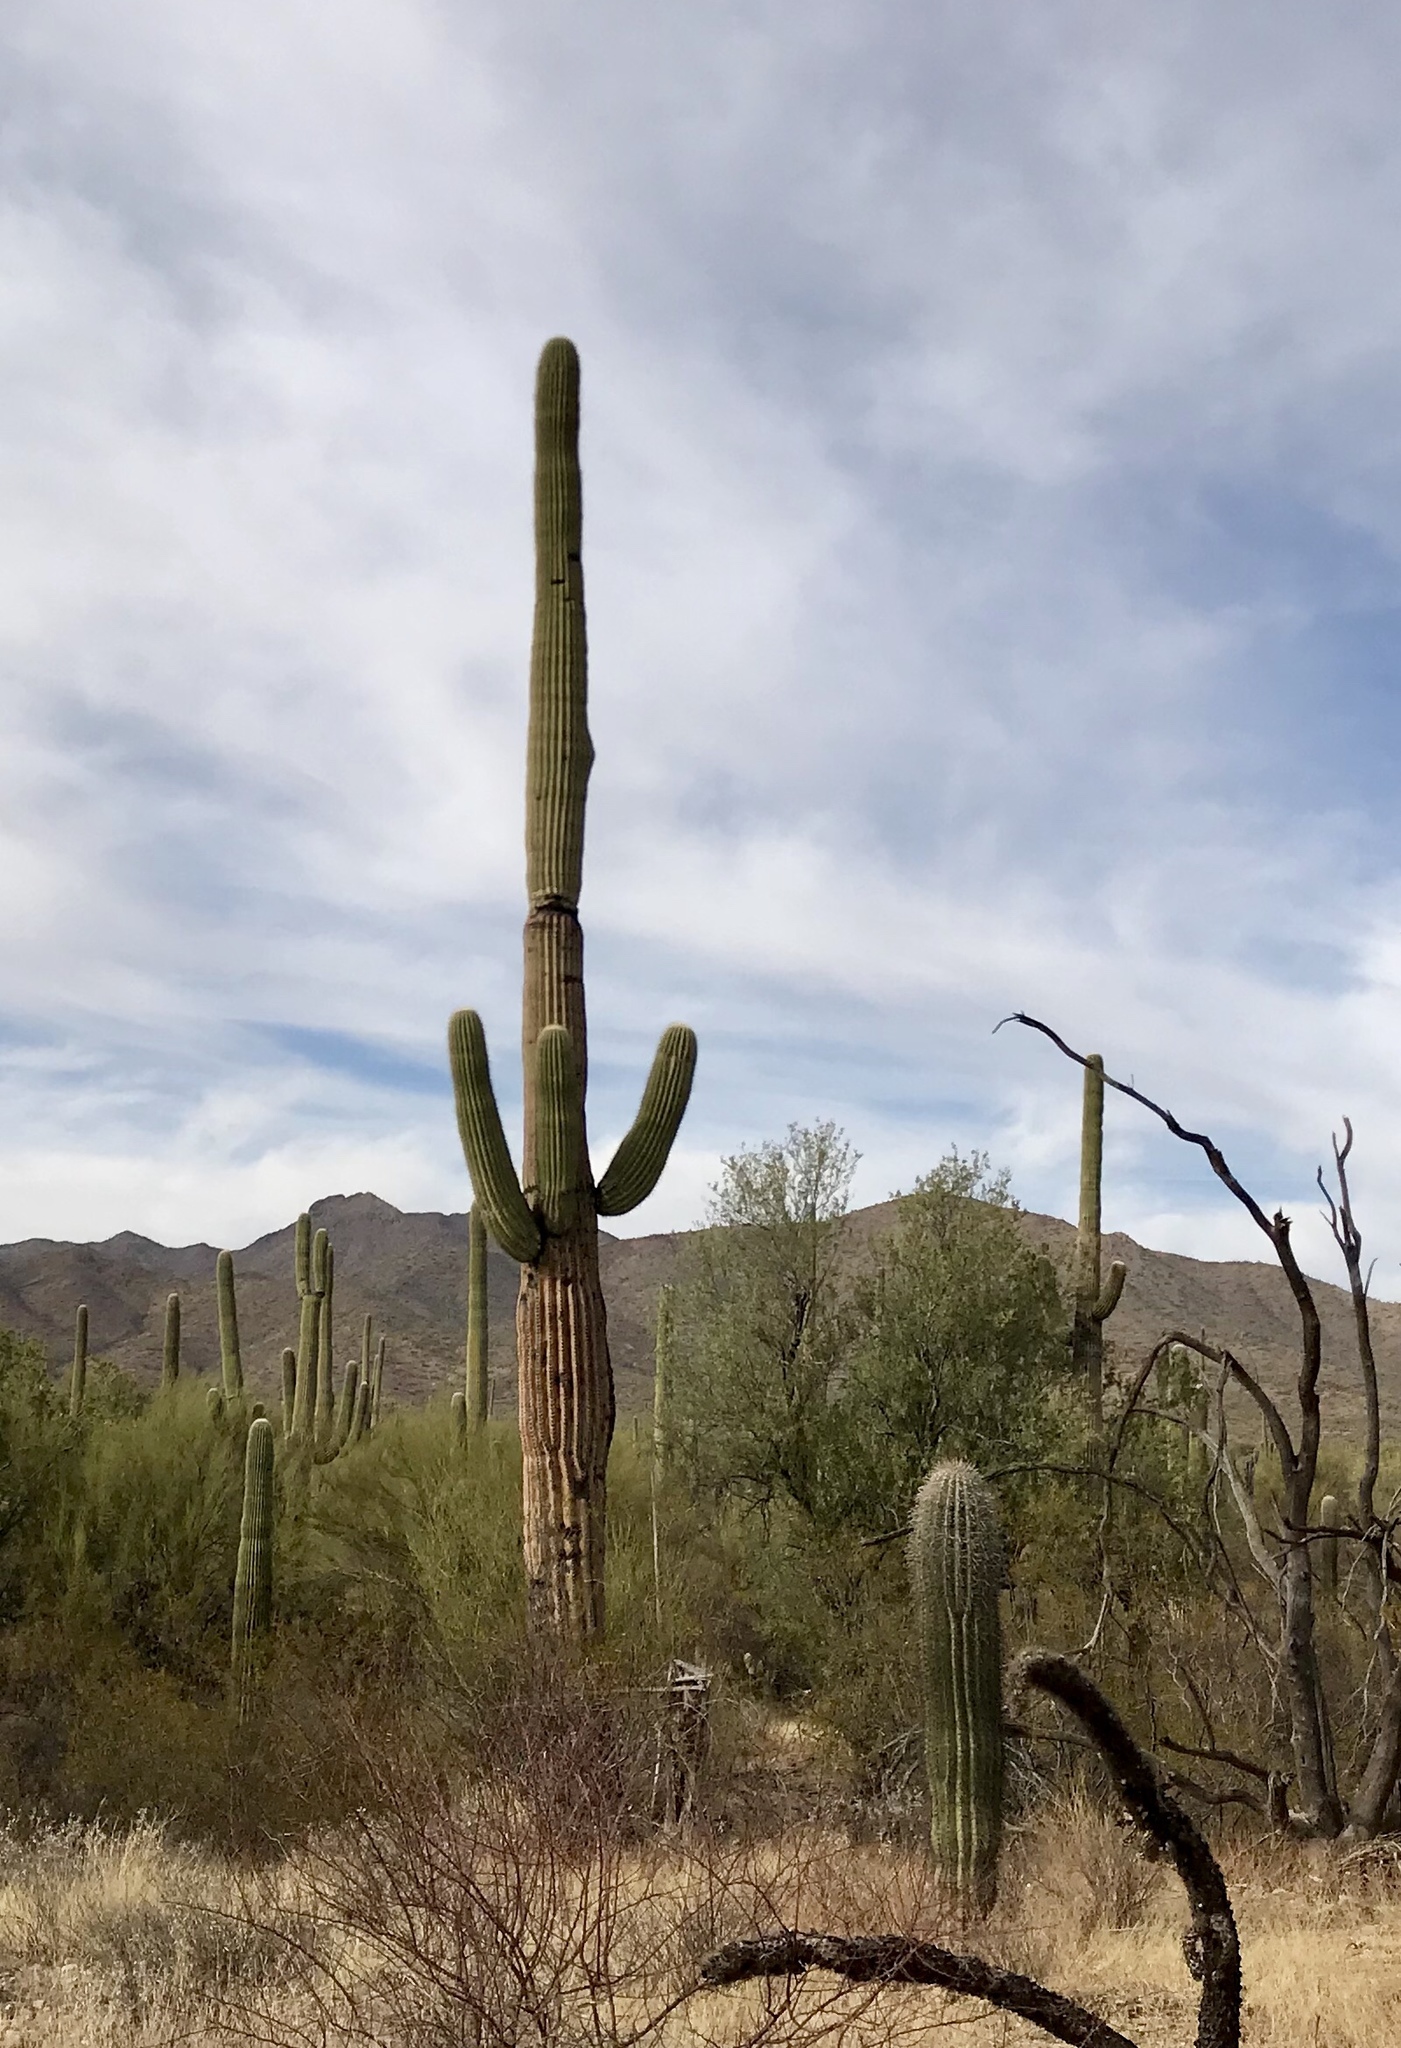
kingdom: Plantae
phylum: Tracheophyta
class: Magnoliopsida
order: Caryophyllales
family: Cactaceae
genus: Carnegiea
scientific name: Carnegiea gigantea
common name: Saguaro
